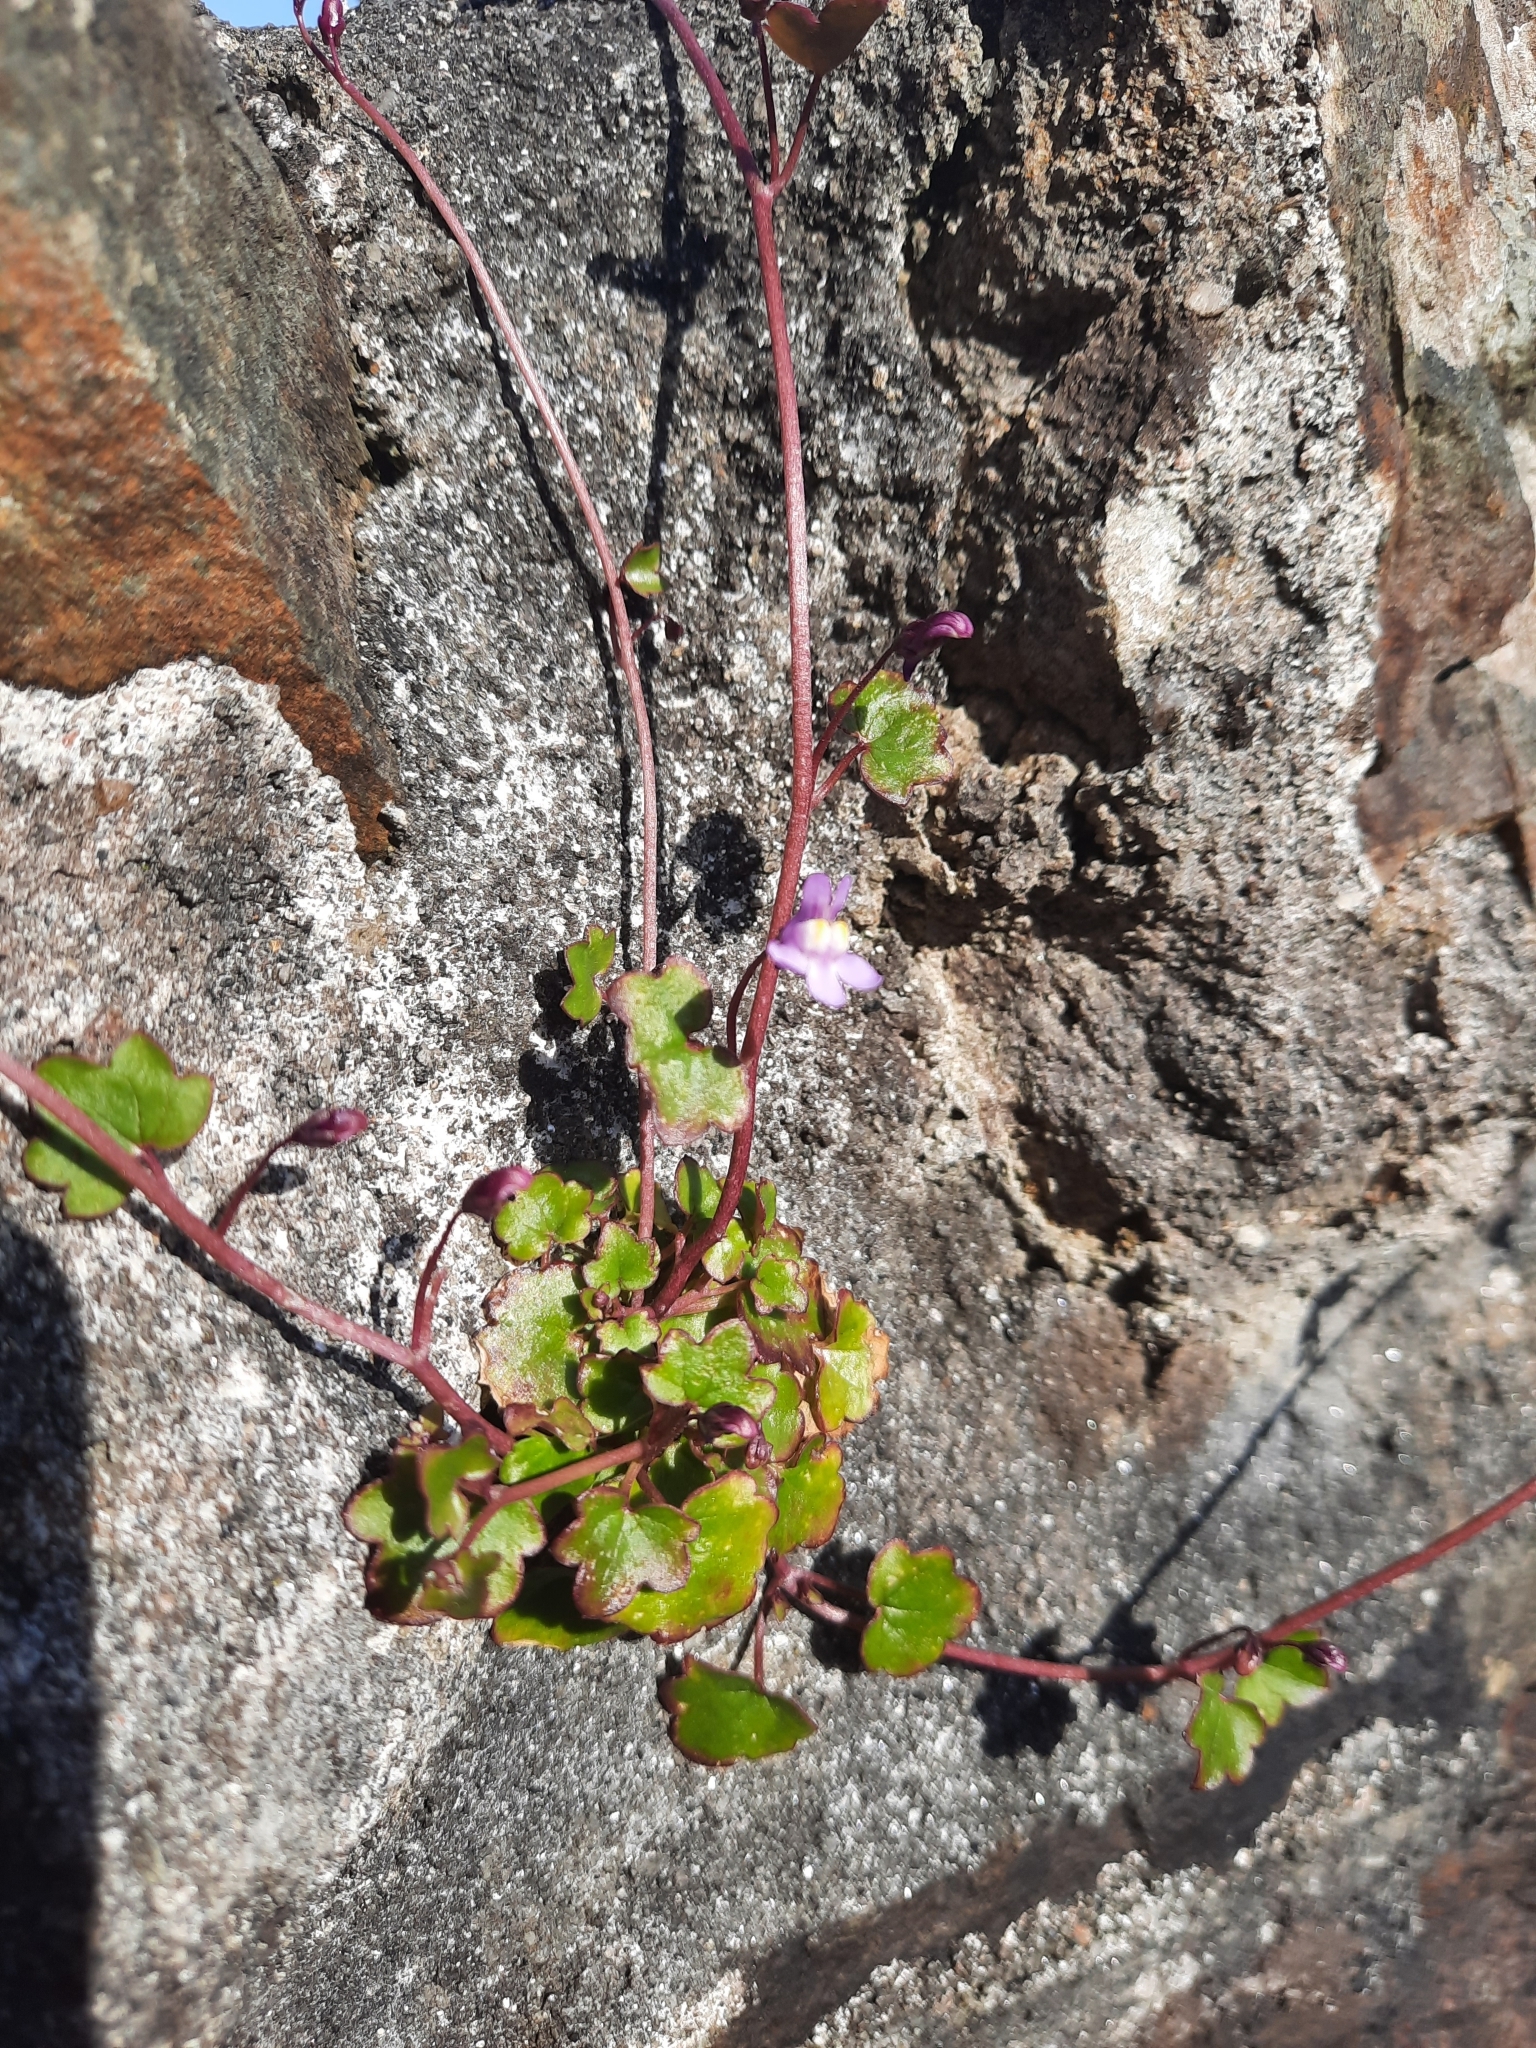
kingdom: Plantae
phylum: Tracheophyta
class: Magnoliopsida
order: Lamiales
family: Plantaginaceae
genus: Cymbalaria
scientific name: Cymbalaria muralis
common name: Ivy-leaved toadflax
